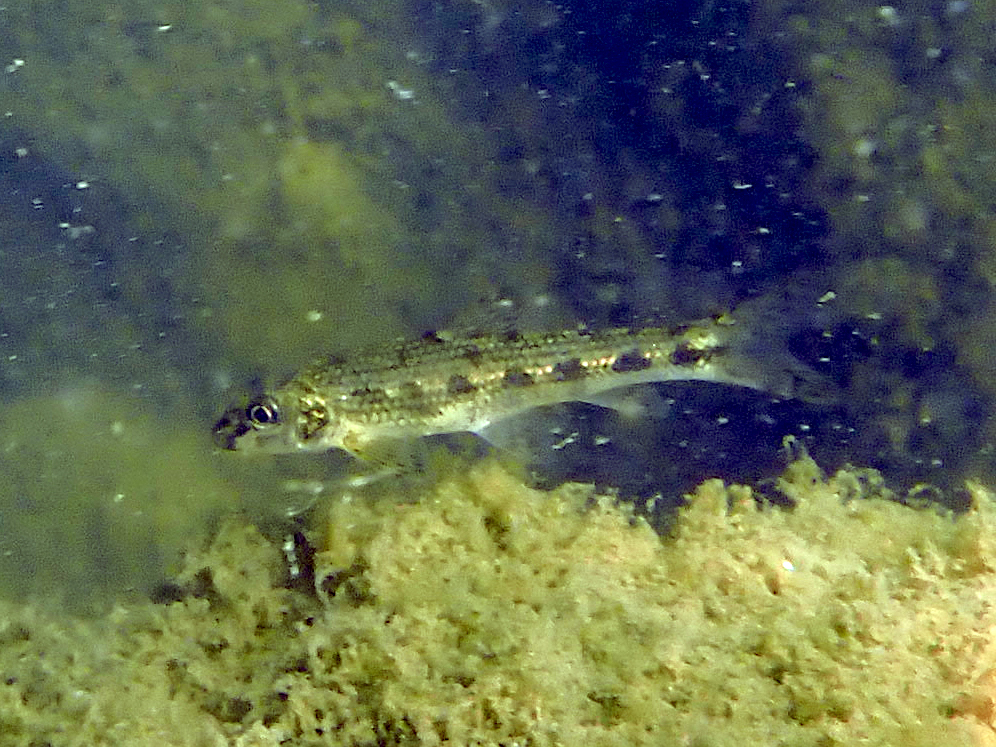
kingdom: Animalia
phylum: Chordata
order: Cypriniformes
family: Cyprinidae
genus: Gobio
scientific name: Gobio gobio
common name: Gudgeon
